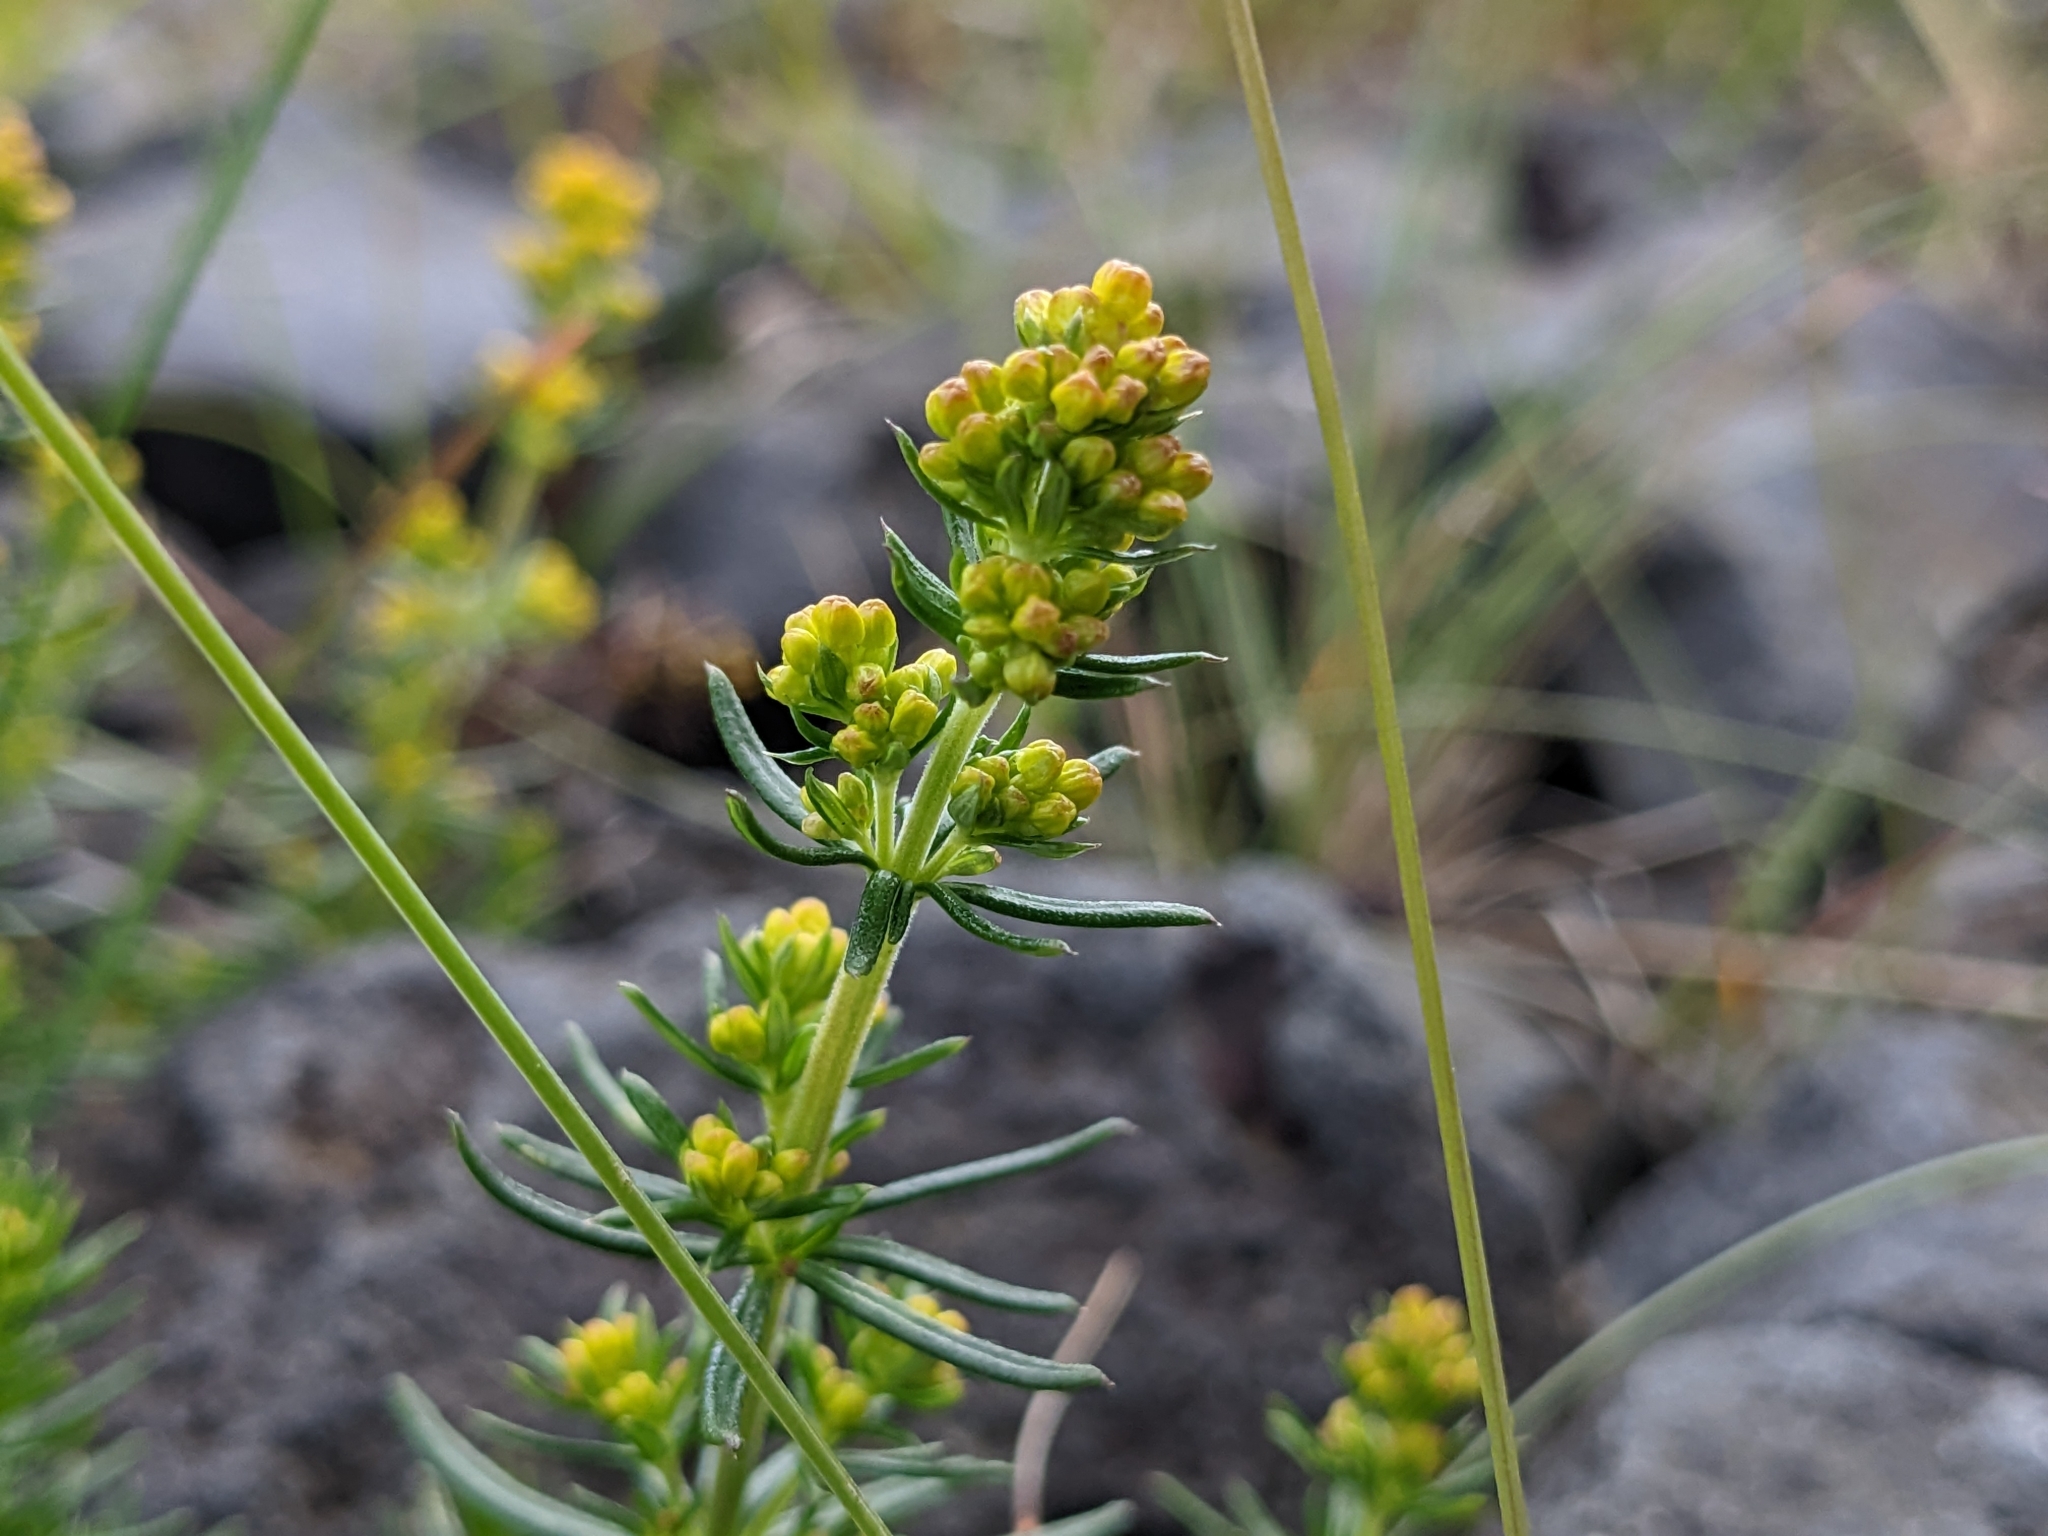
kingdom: Plantae
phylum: Tracheophyta
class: Magnoliopsida
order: Gentianales
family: Rubiaceae
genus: Galium
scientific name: Galium verum
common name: Lady's bedstraw
